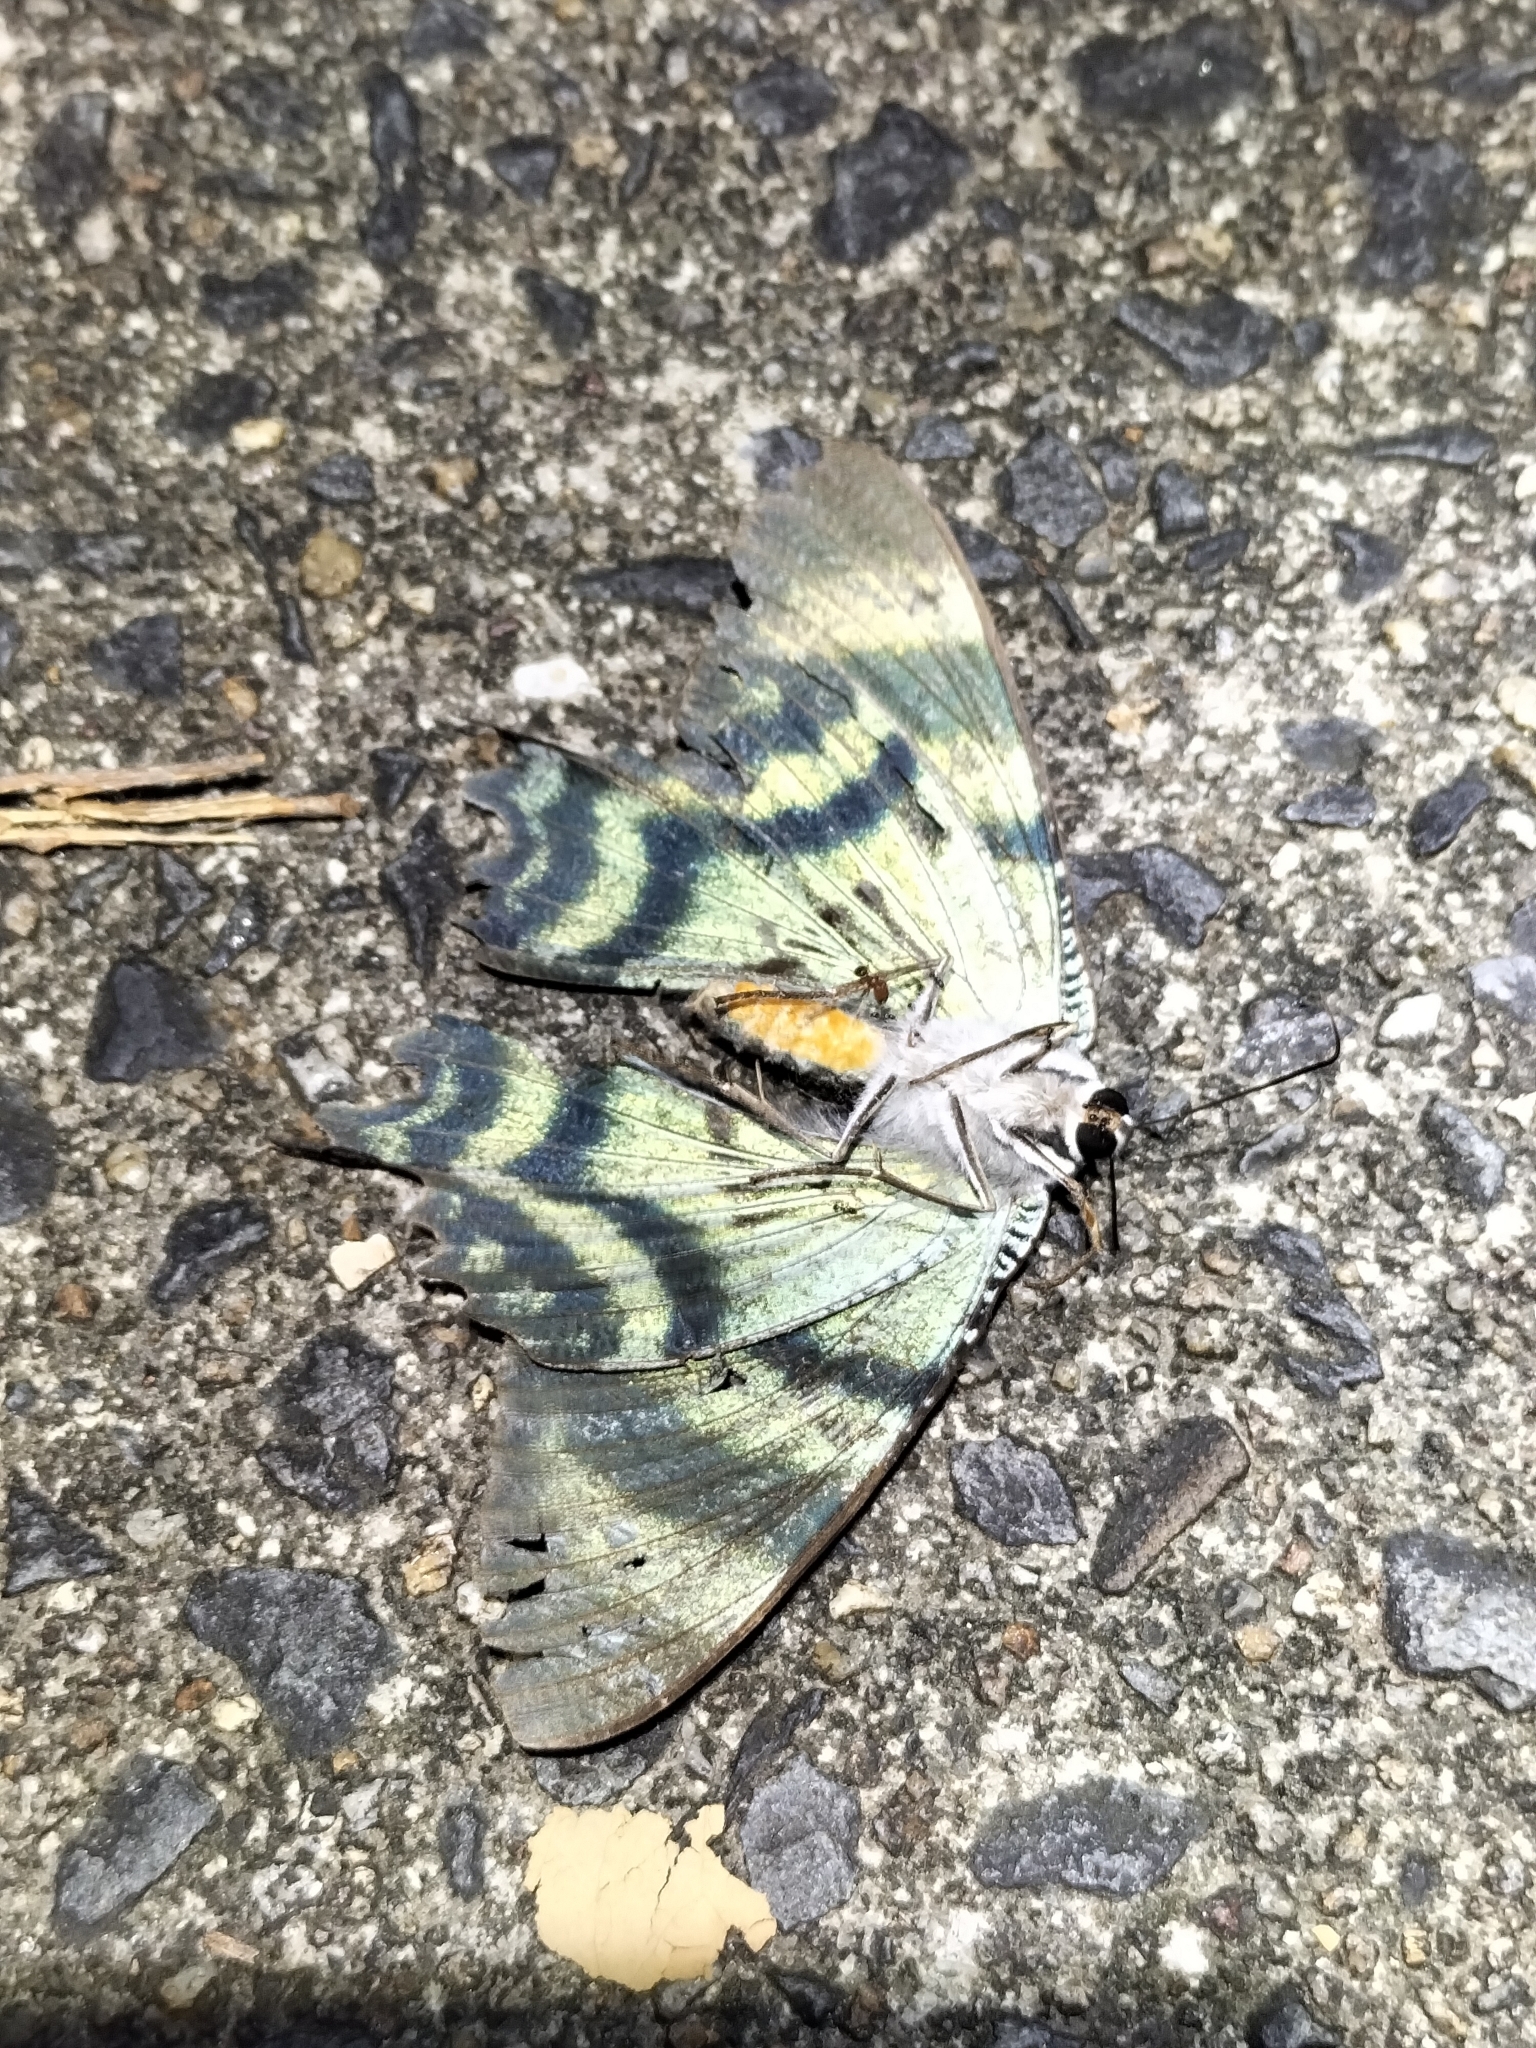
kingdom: Animalia
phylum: Arthropoda
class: Insecta
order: Lepidoptera
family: Uraniidae
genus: Alcides
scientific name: Alcides metaurus
